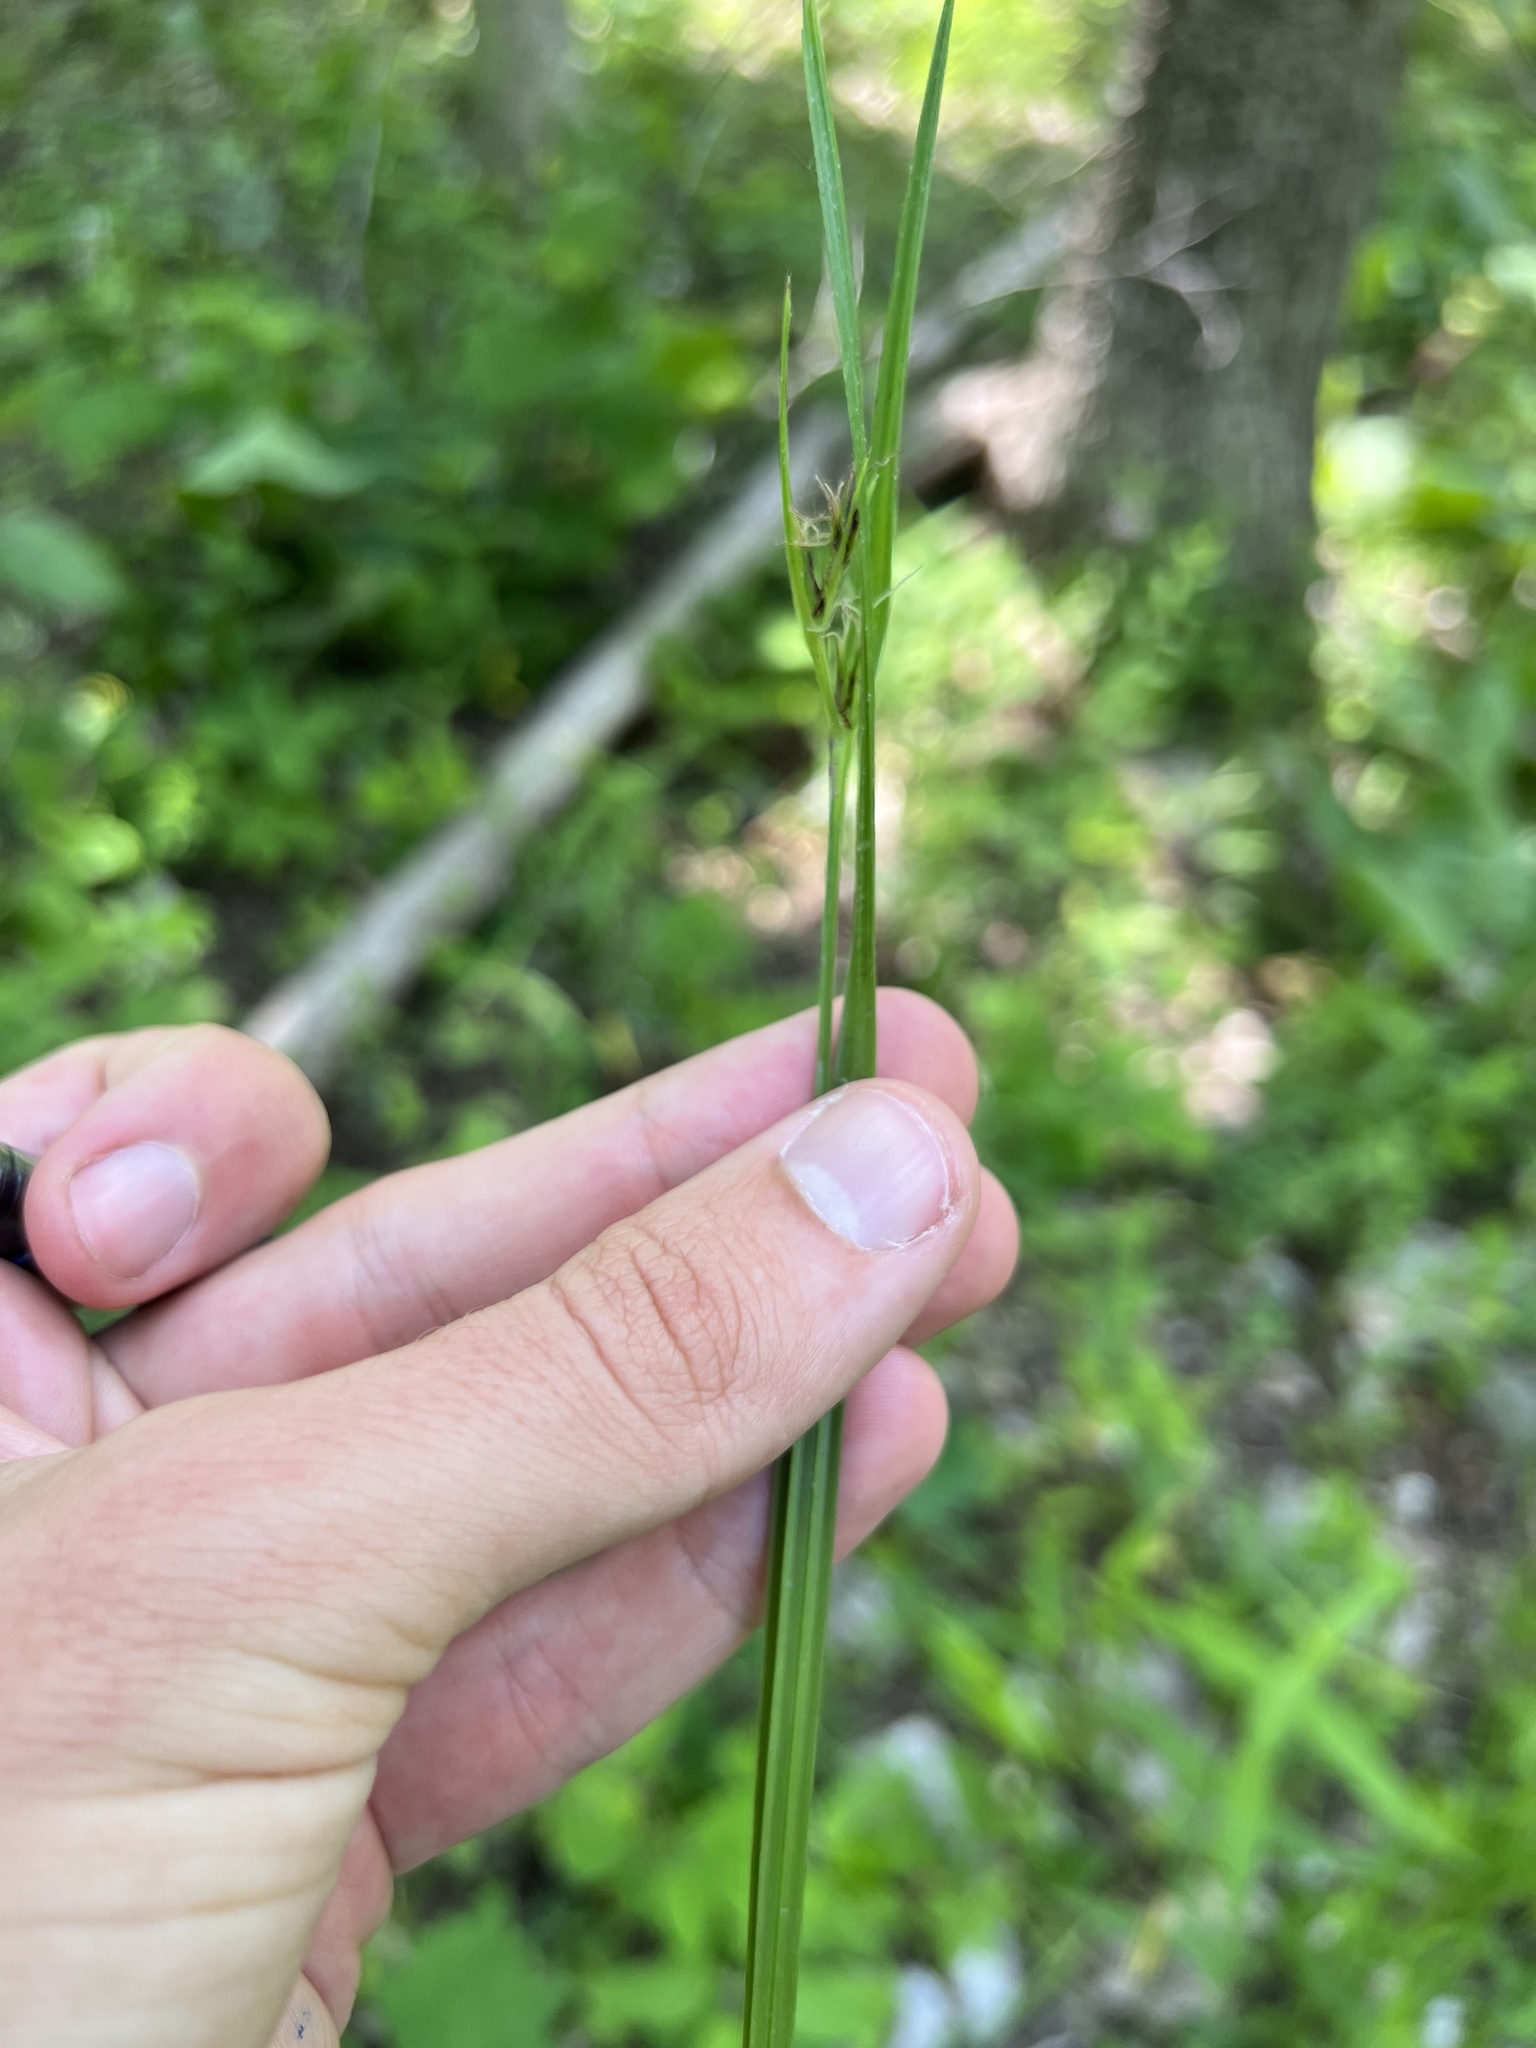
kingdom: Plantae
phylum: Tracheophyta
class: Liliopsida
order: Poales
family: Cyperaceae
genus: Scleria
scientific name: Scleria triglomerata
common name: Whip nutrush
